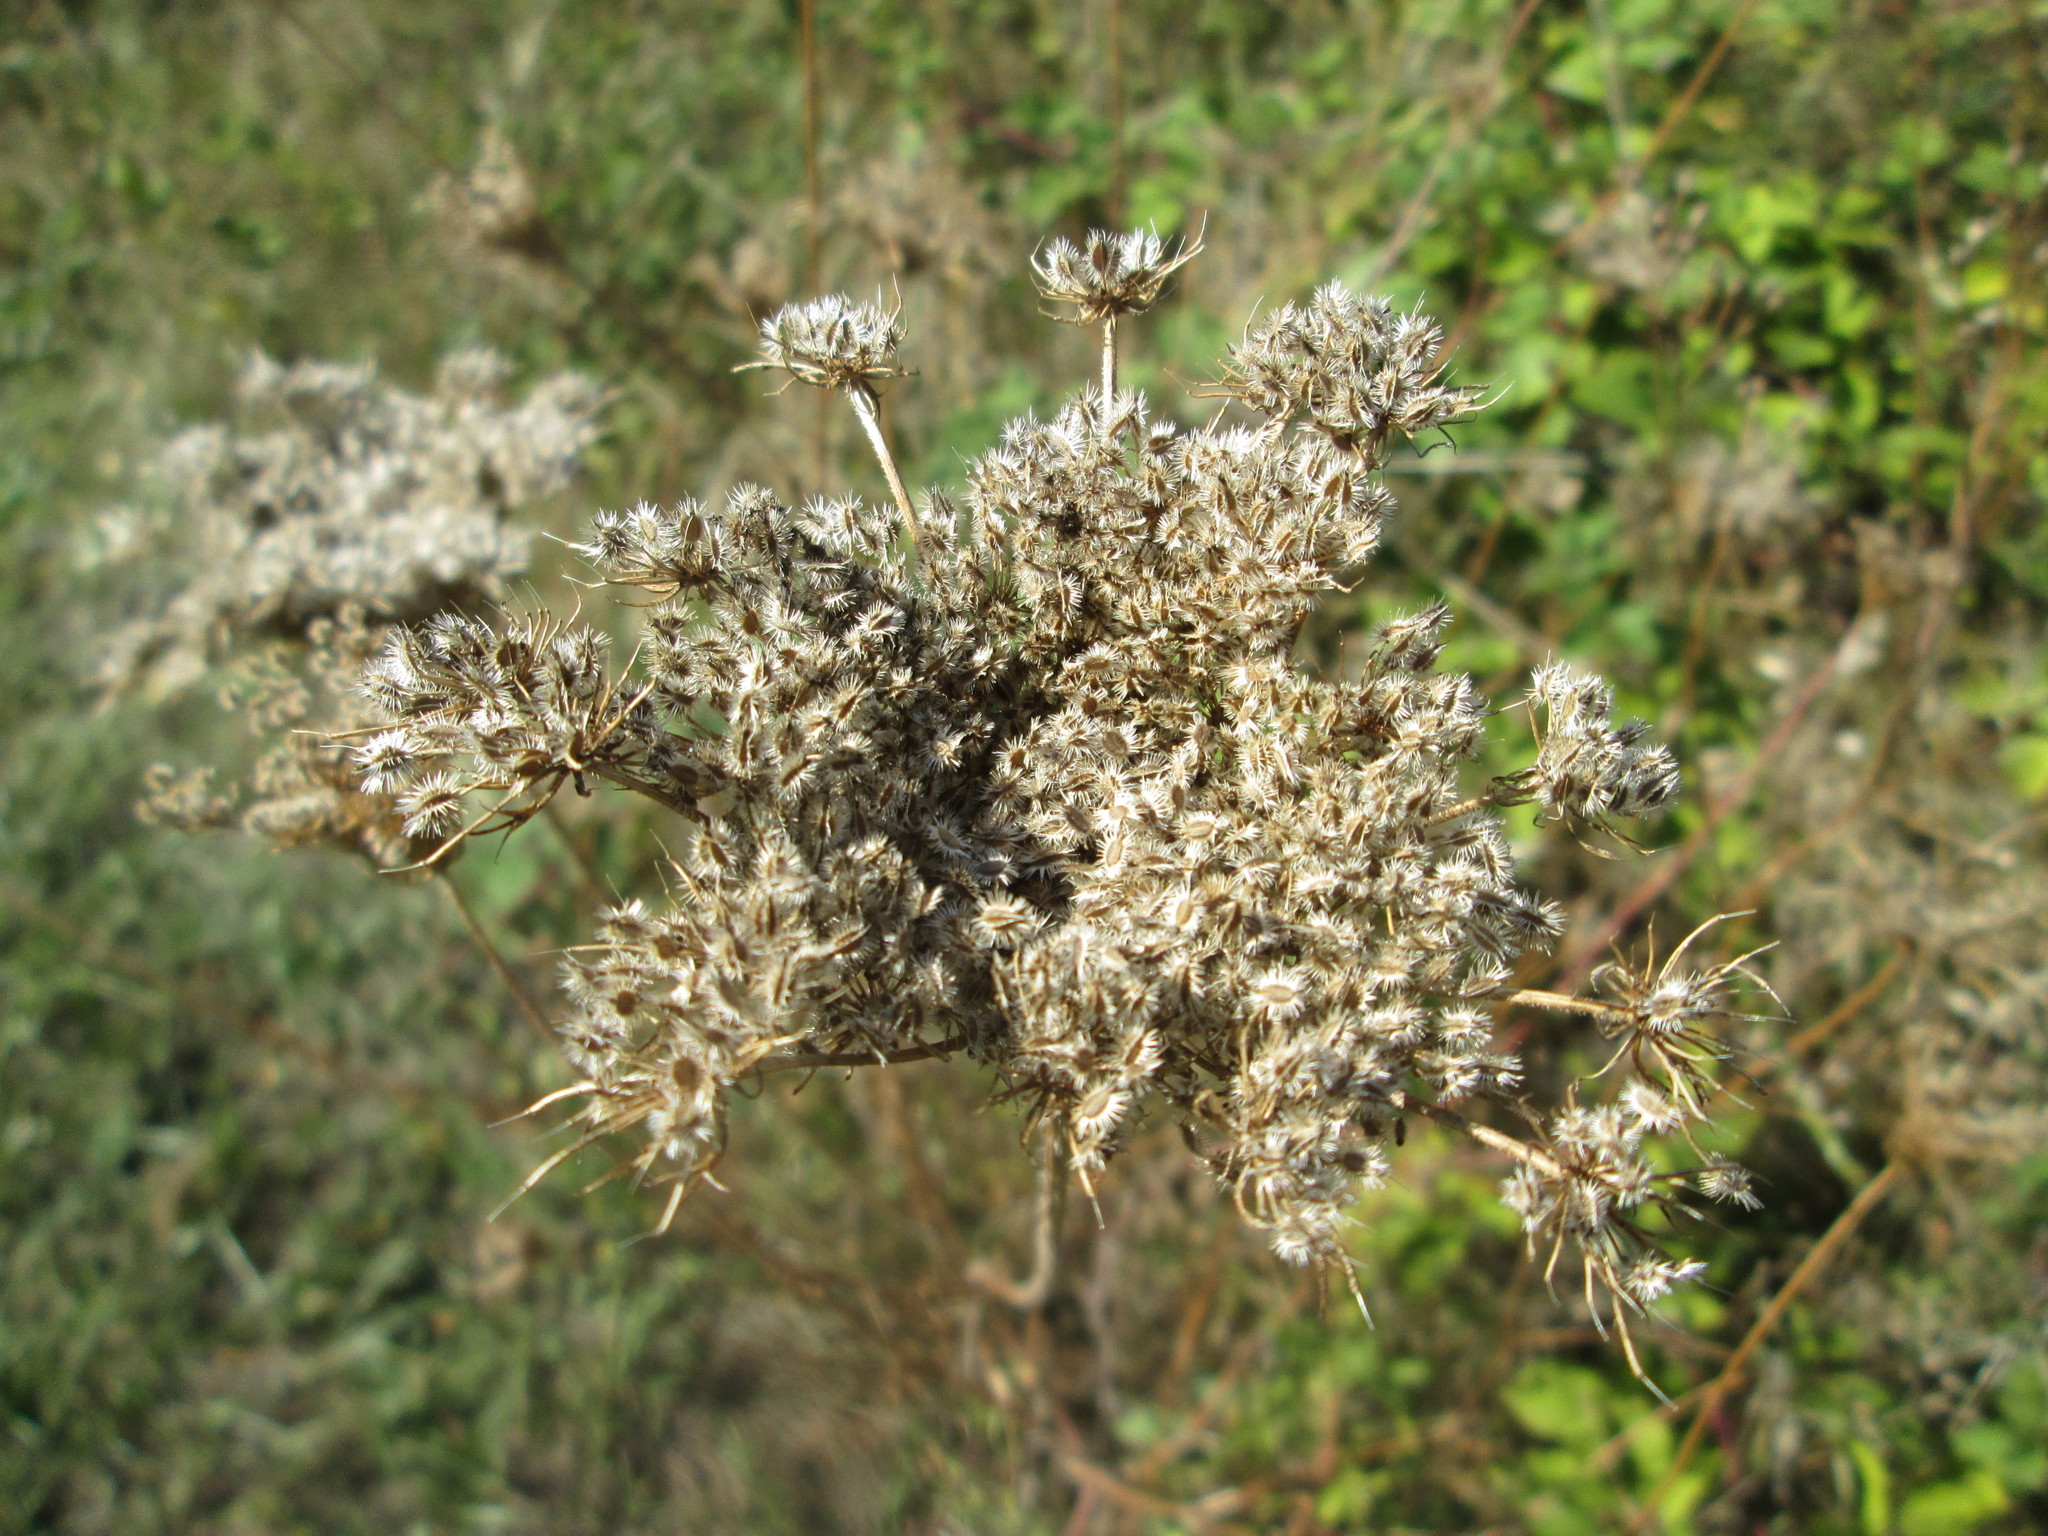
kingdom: Plantae
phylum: Tracheophyta
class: Magnoliopsida
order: Apiales
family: Apiaceae
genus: Daucus
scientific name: Daucus carota
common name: Wild carrot
